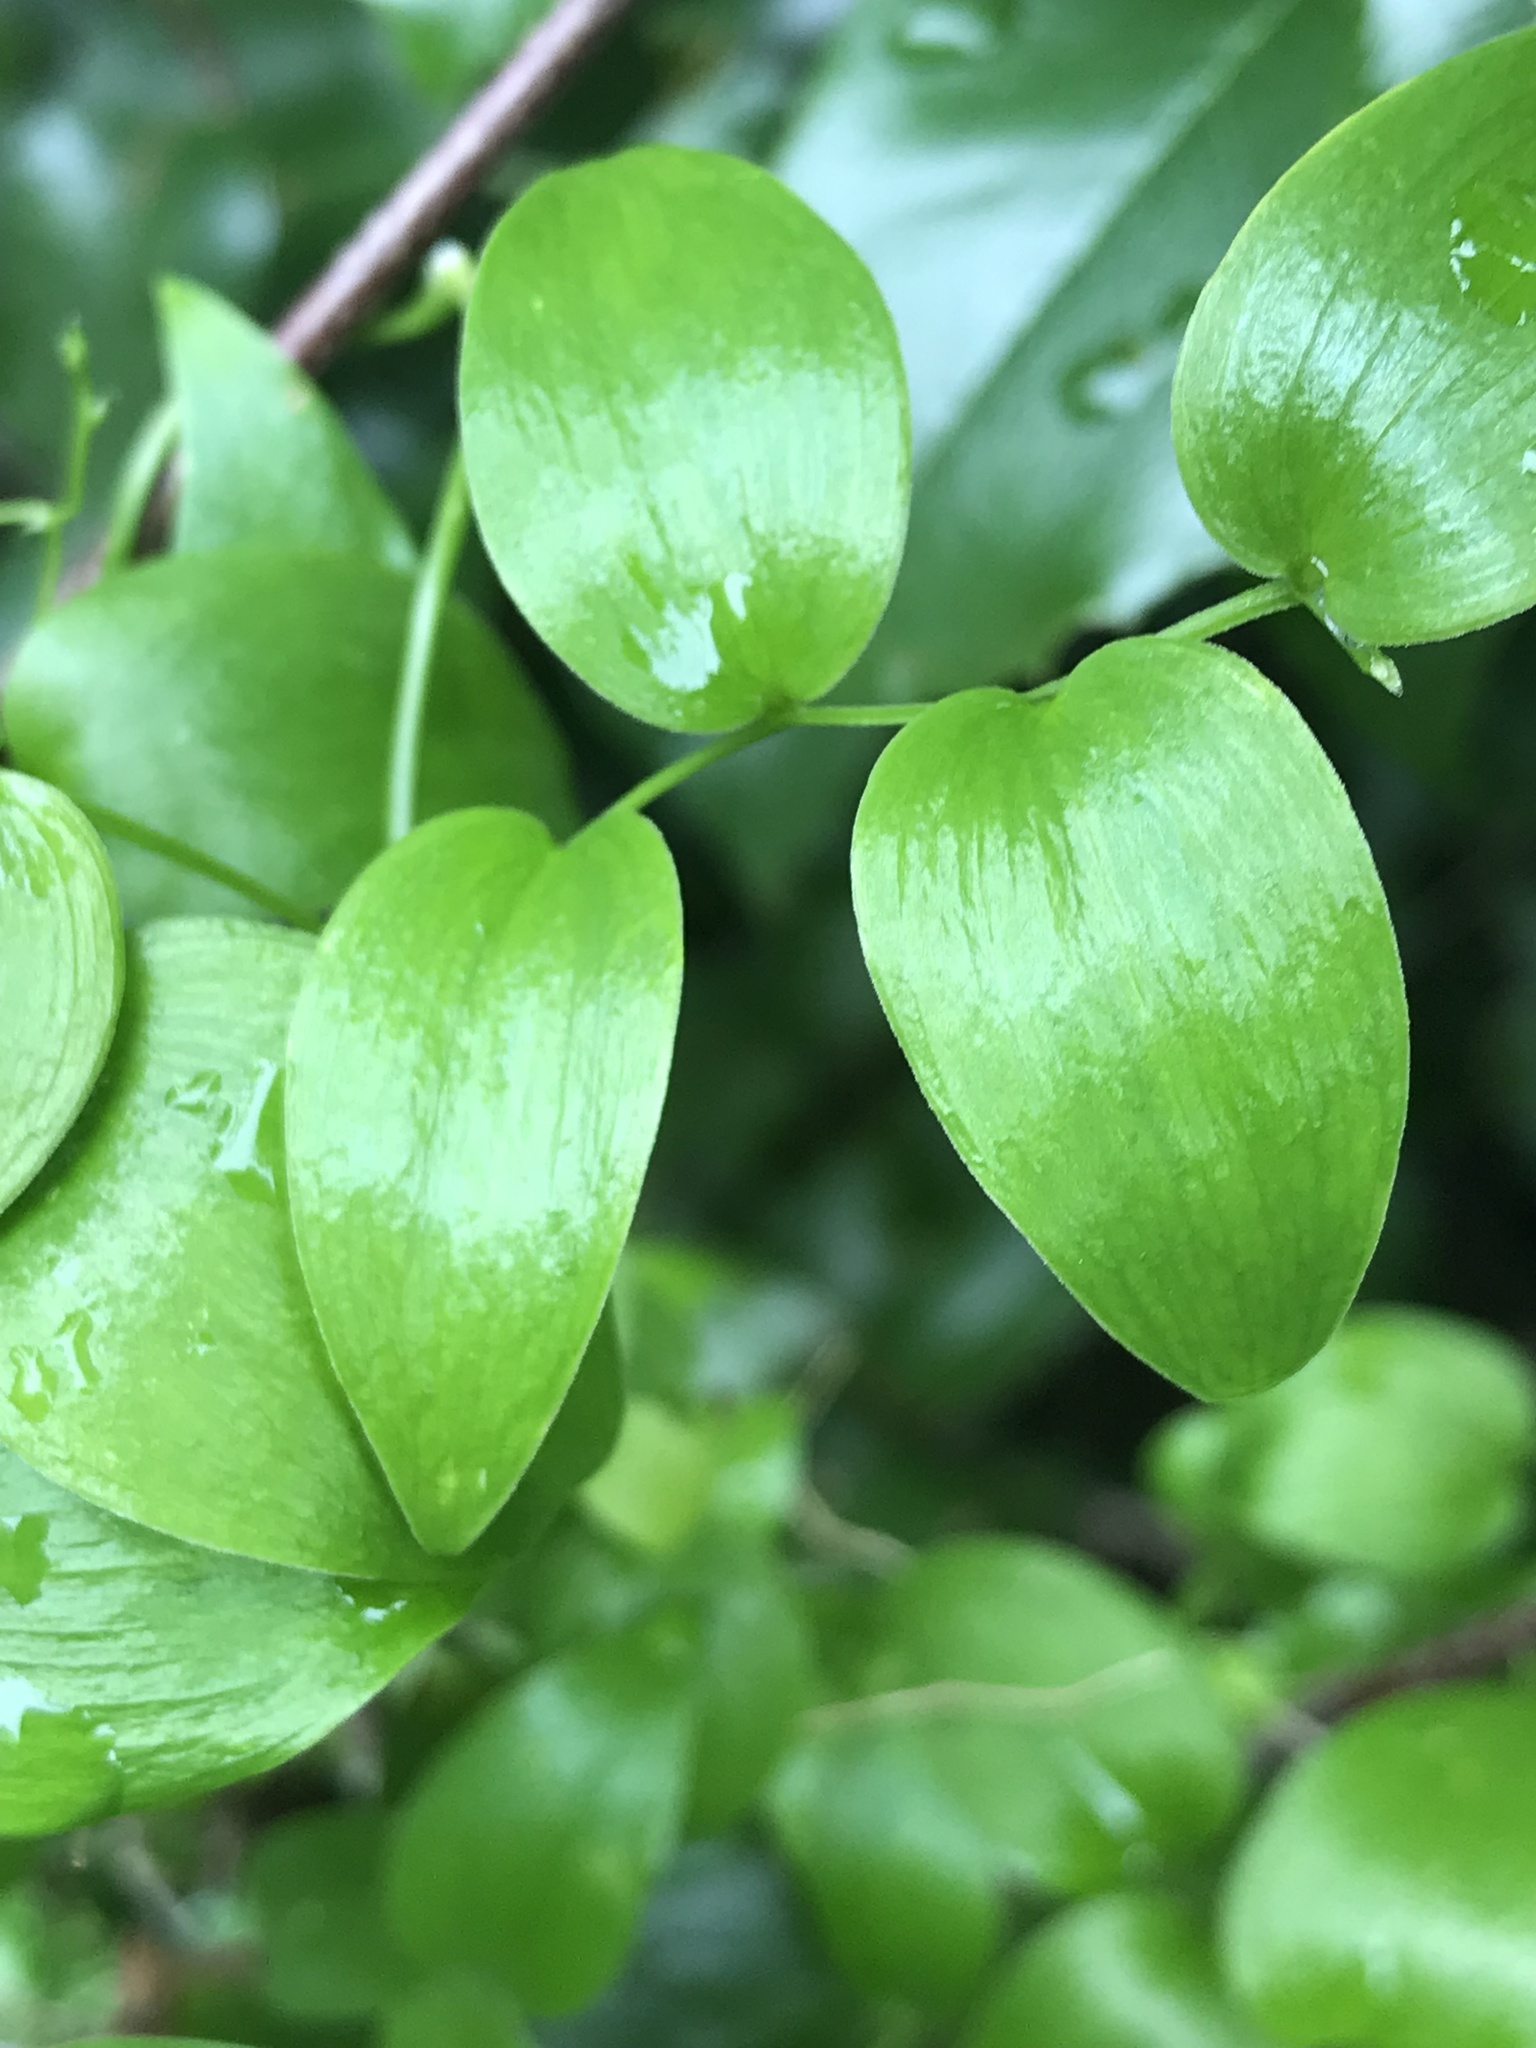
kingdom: Plantae
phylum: Tracheophyta
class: Liliopsida
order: Asparagales
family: Asparagaceae
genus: Asparagus
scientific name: Asparagus asparagoides
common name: African asparagus fern
